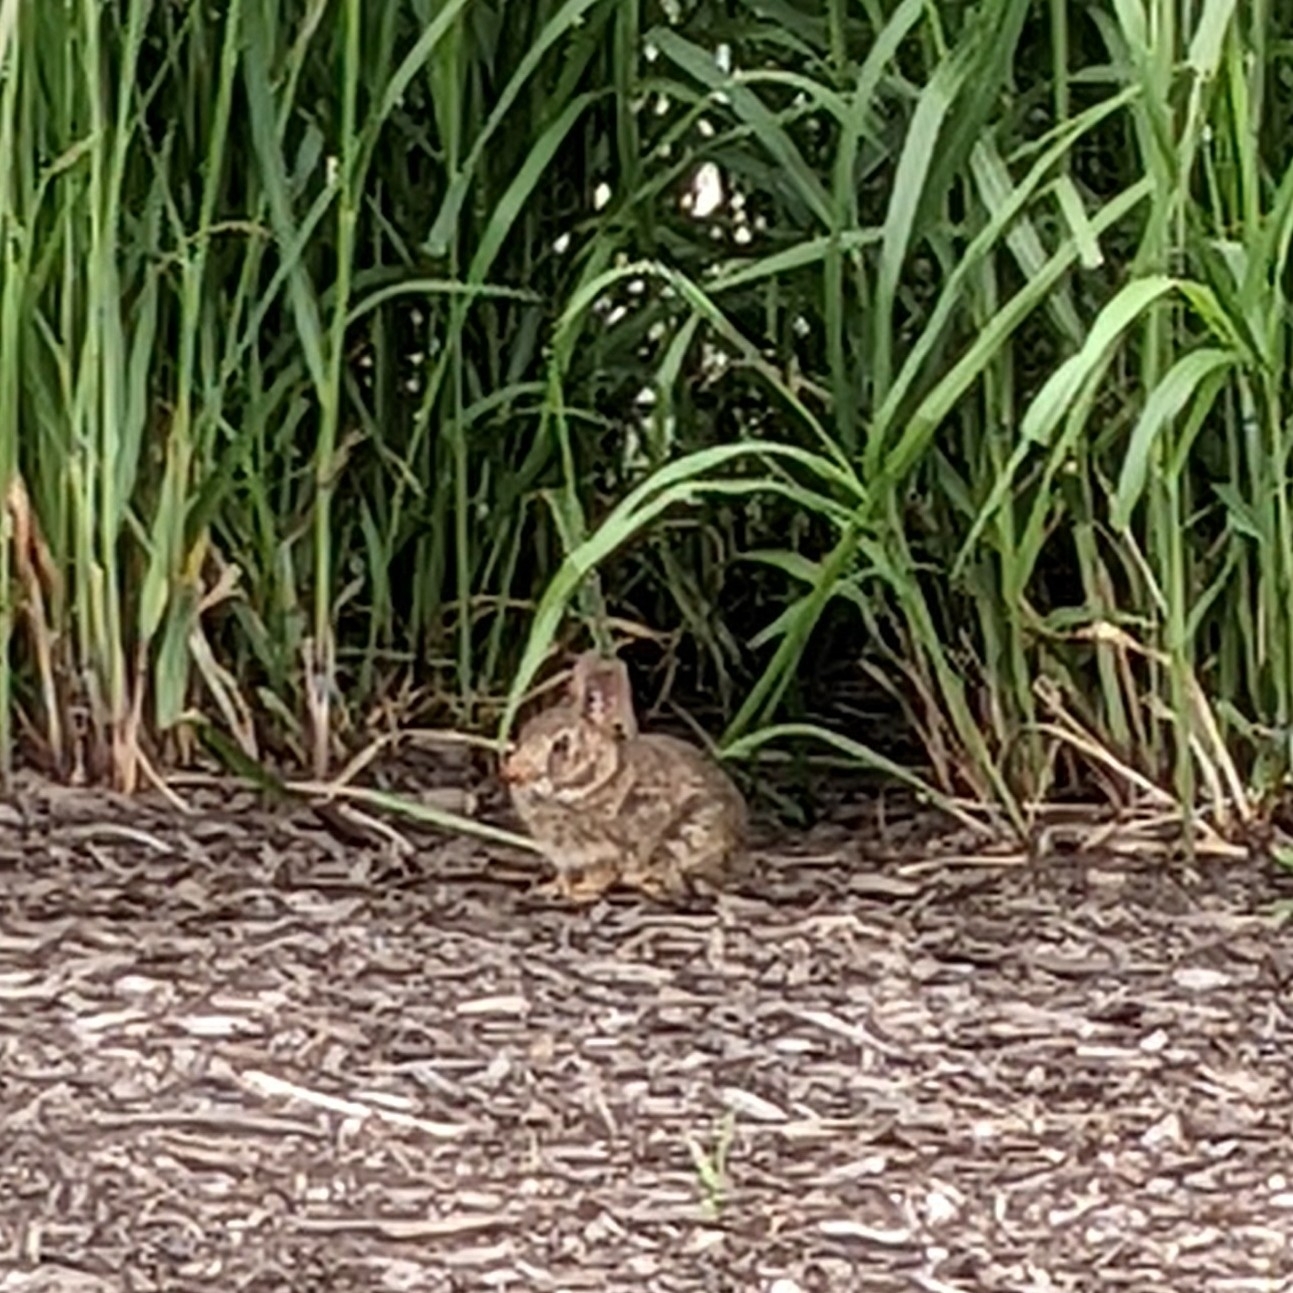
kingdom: Animalia
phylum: Chordata
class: Mammalia
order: Lagomorpha
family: Leporidae
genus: Sylvilagus
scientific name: Sylvilagus floridanus
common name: Eastern cottontail
